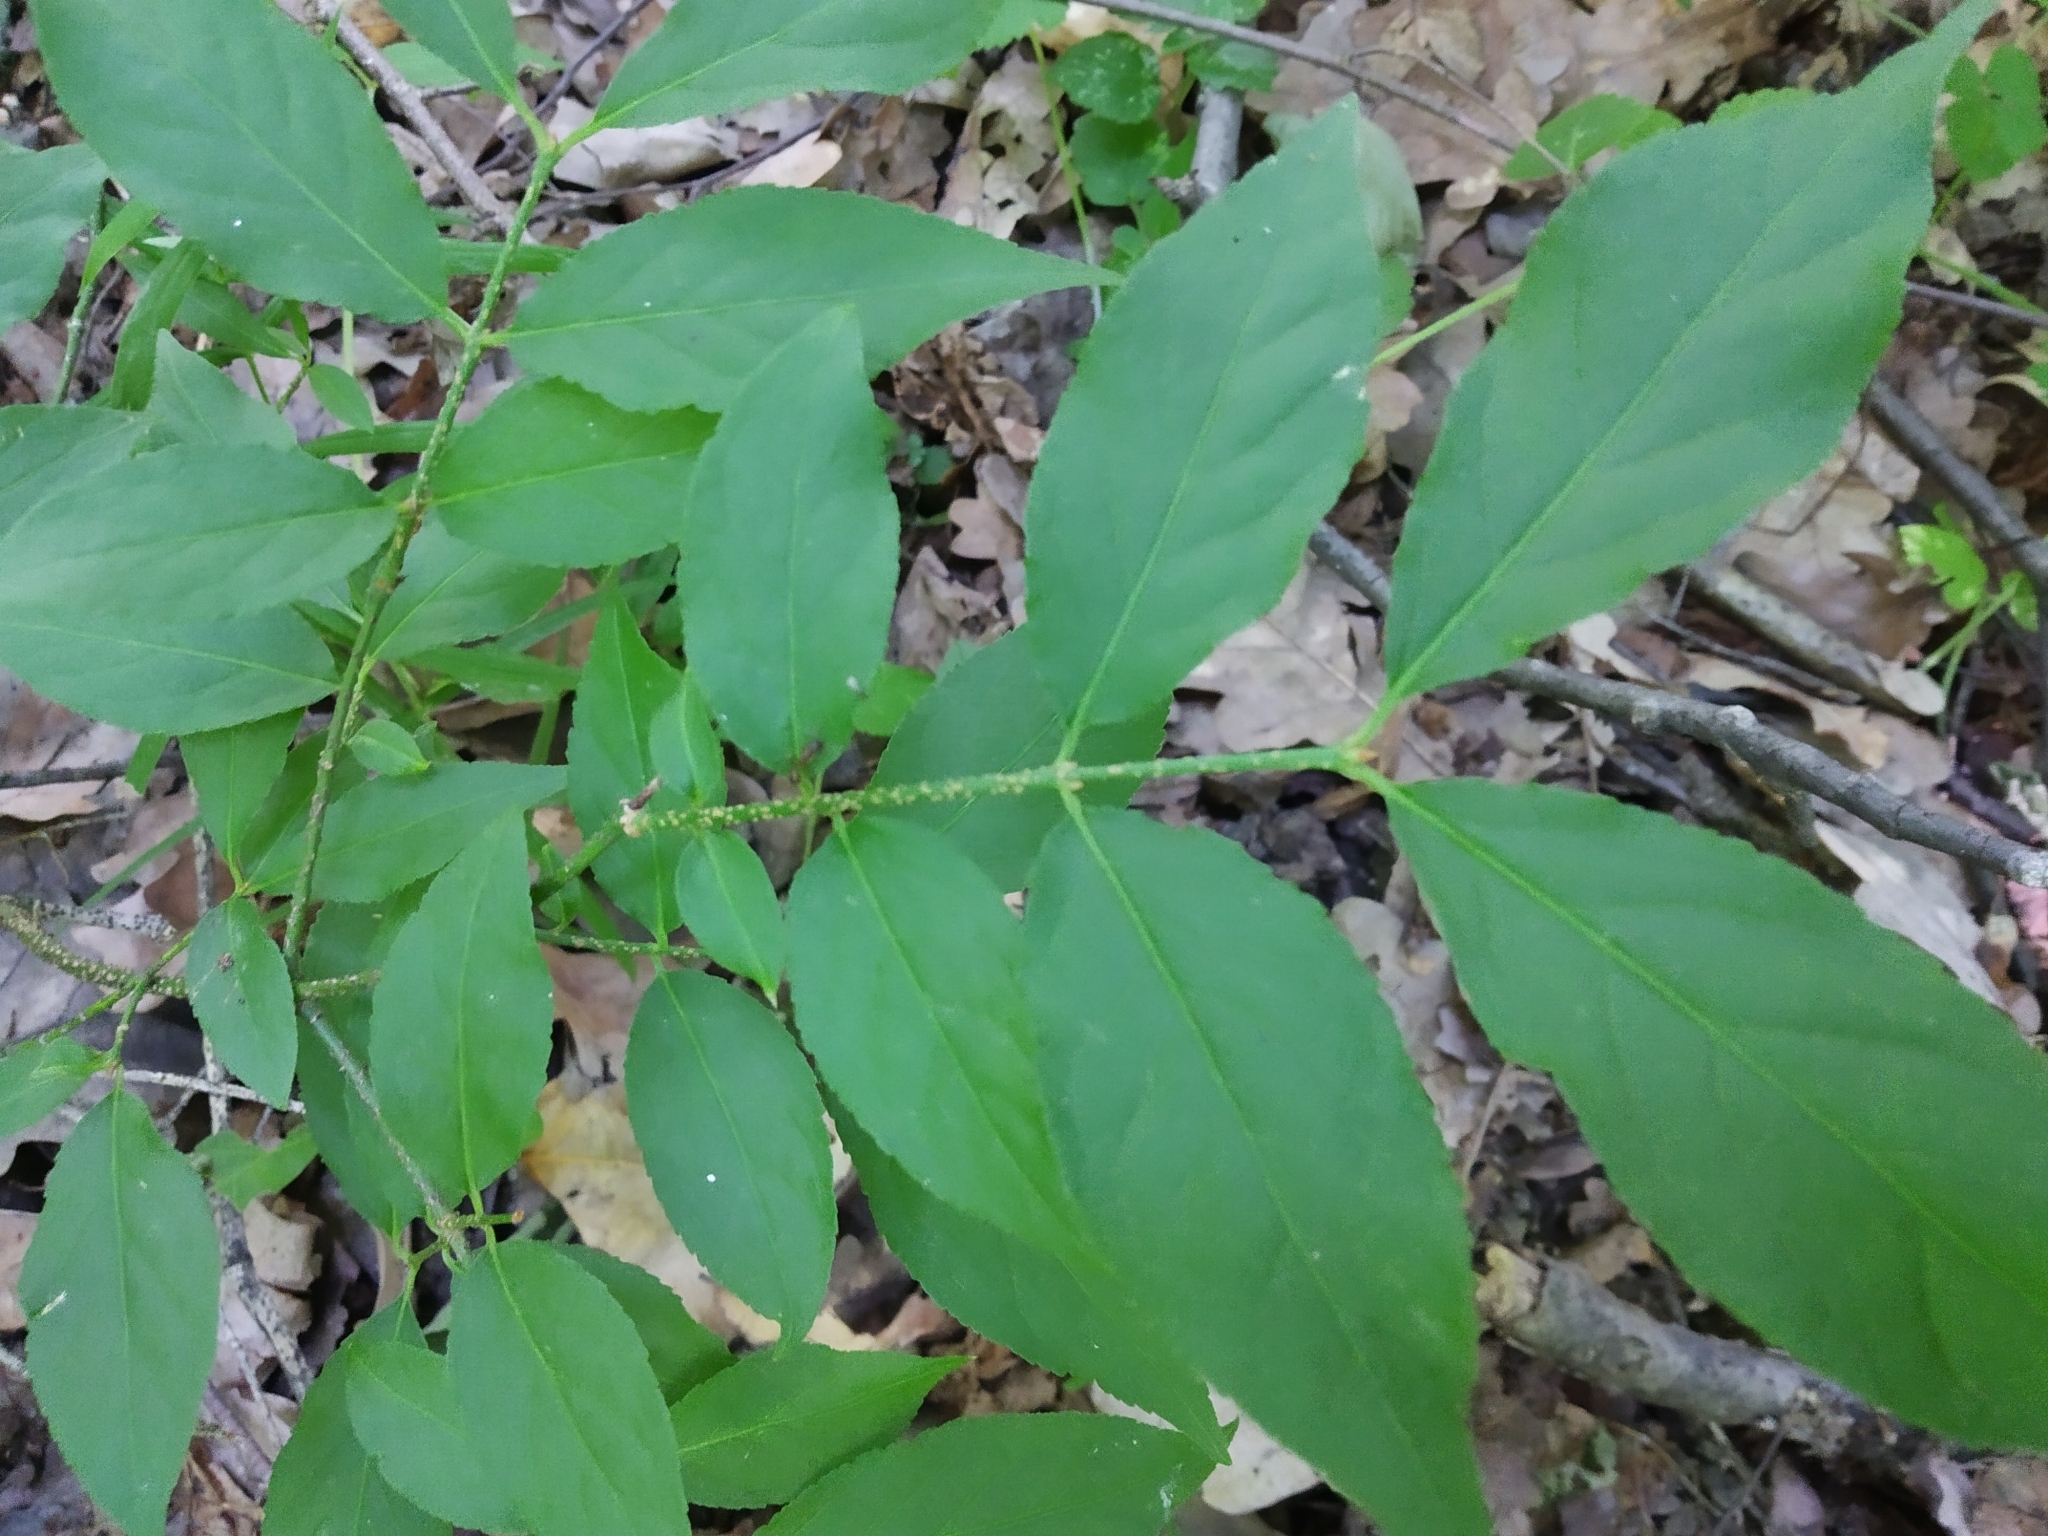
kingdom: Plantae
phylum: Tracheophyta
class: Magnoliopsida
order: Celastrales
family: Celastraceae
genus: Euonymus
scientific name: Euonymus verrucosus
